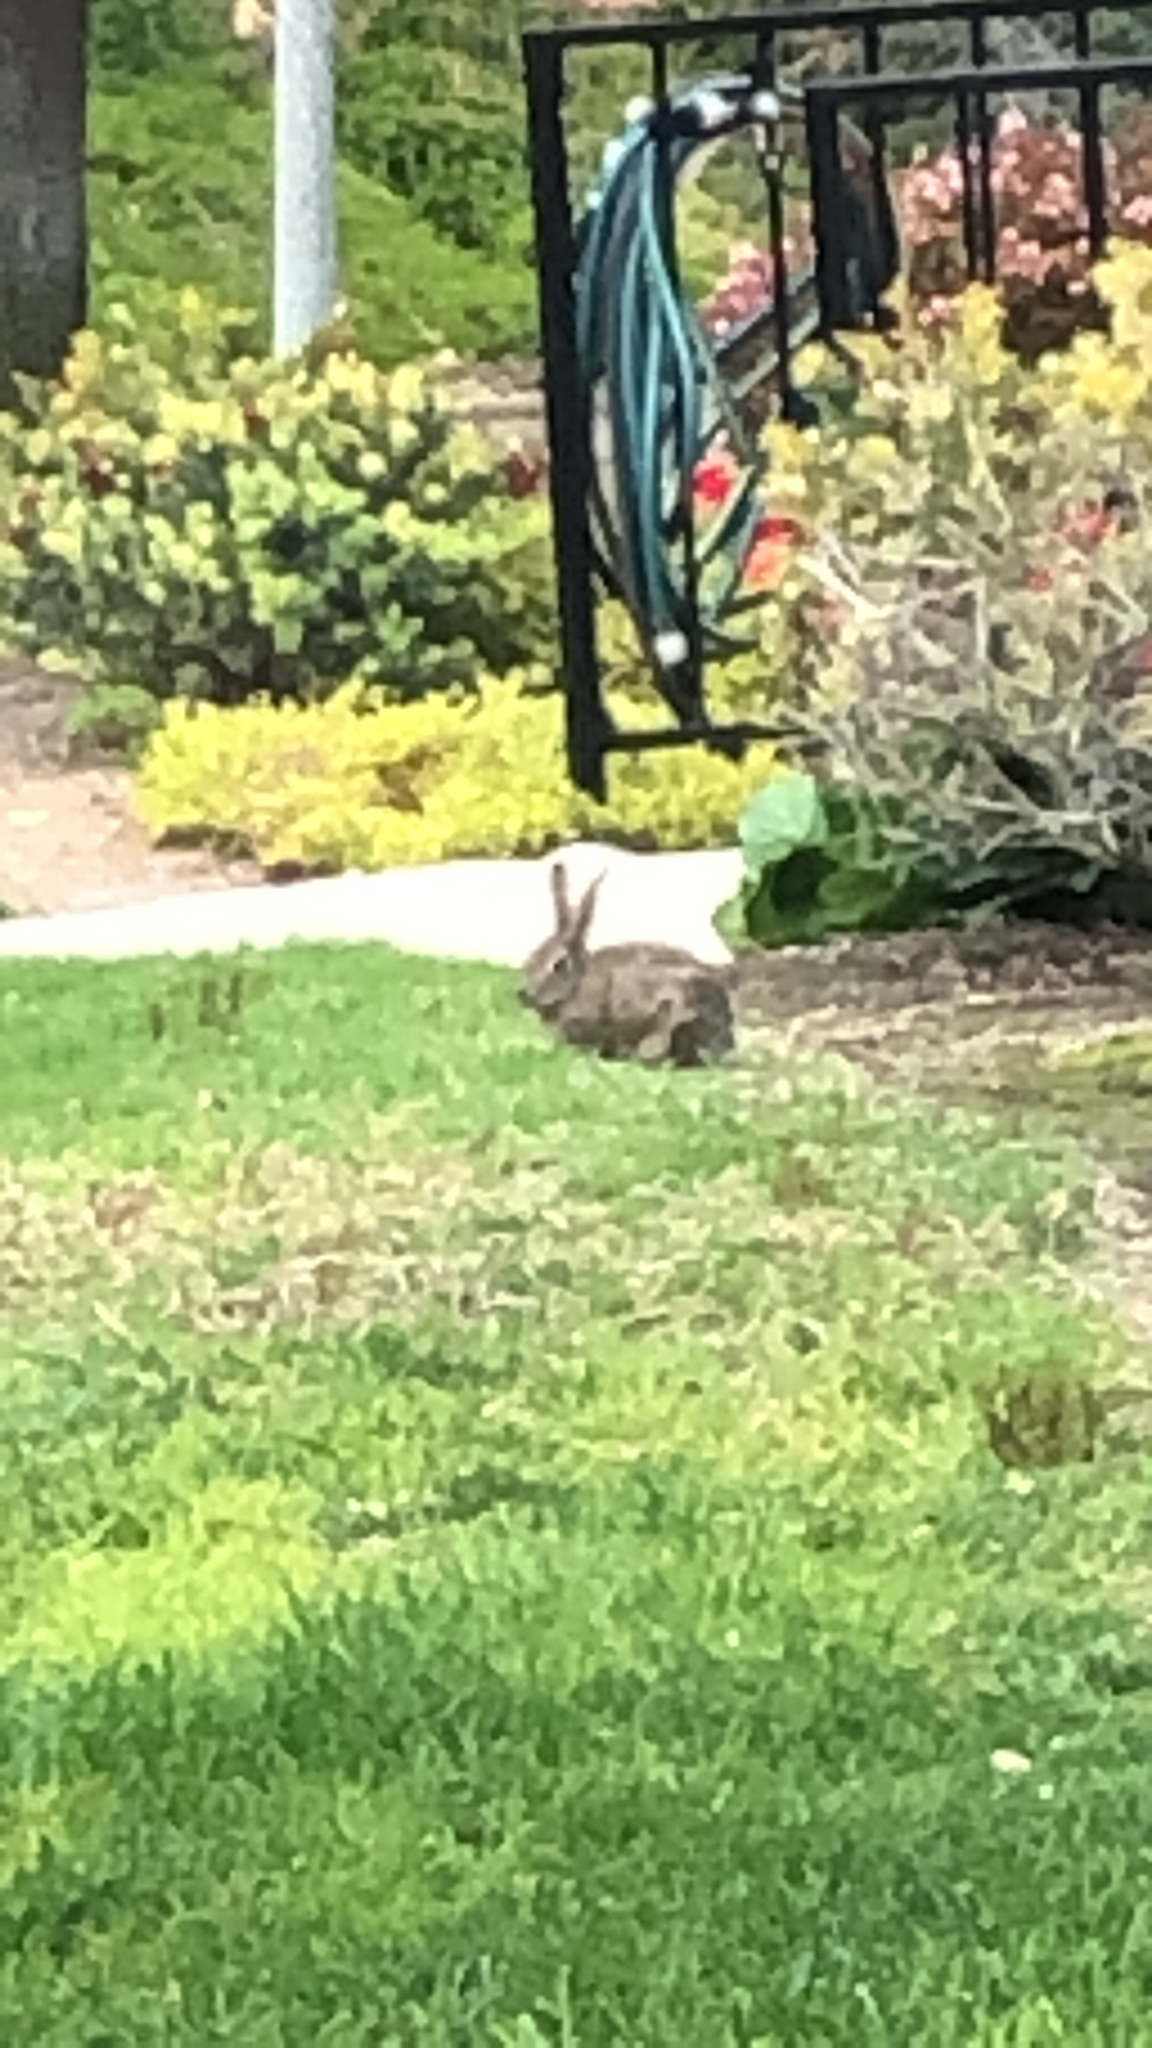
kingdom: Animalia
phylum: Chordata
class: Mammalia
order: Lagomorpha
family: Leporidae
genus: Sylvilagus
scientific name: Sylvilagus bachmani
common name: Brush rabbit
